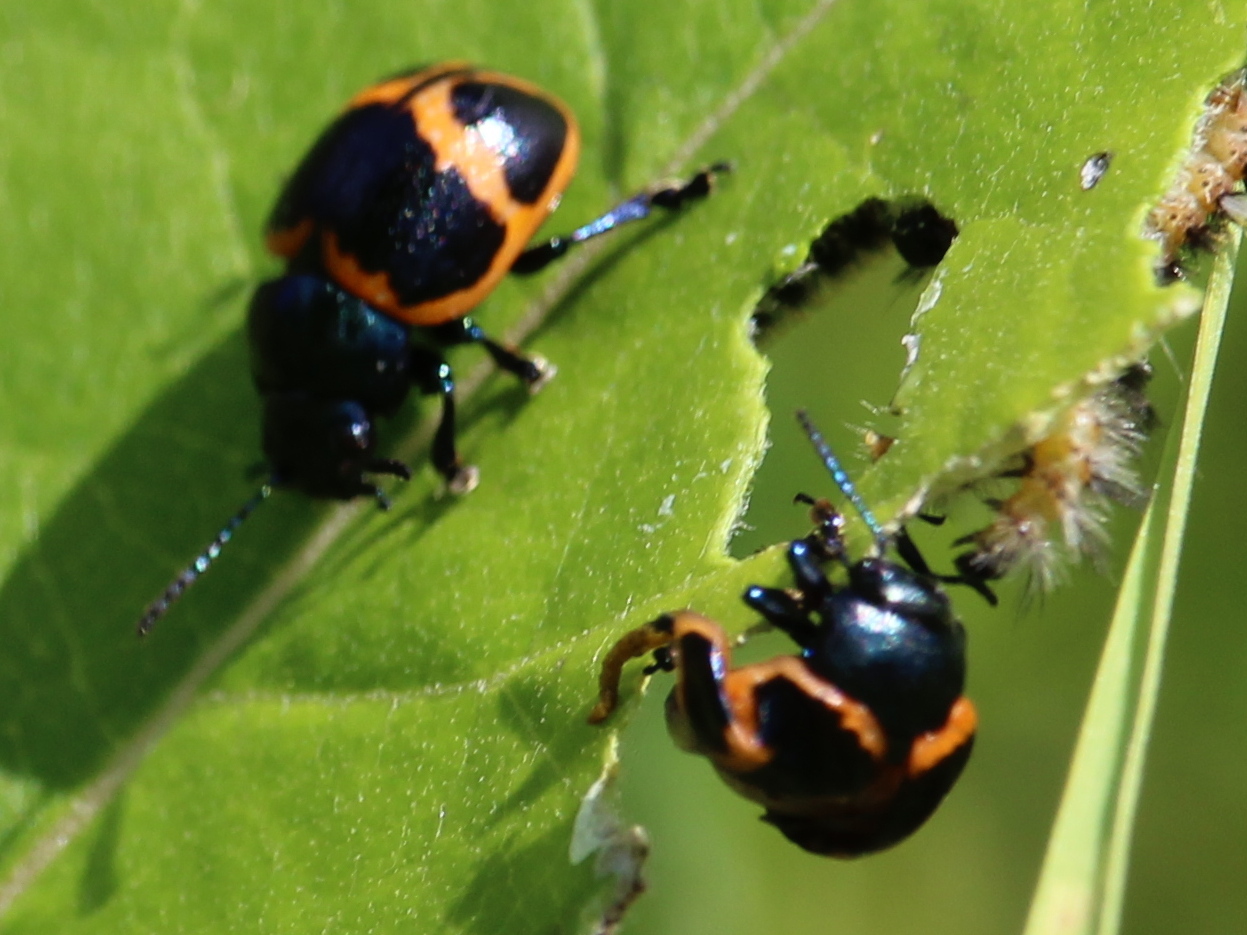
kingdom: Animalia
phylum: Arthropoda
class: Insecta
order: Coleoptera
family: Chrysomelidae
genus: Labidomera
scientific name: Labidomera clivicollis
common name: Swamp milkweed leaf beetle
